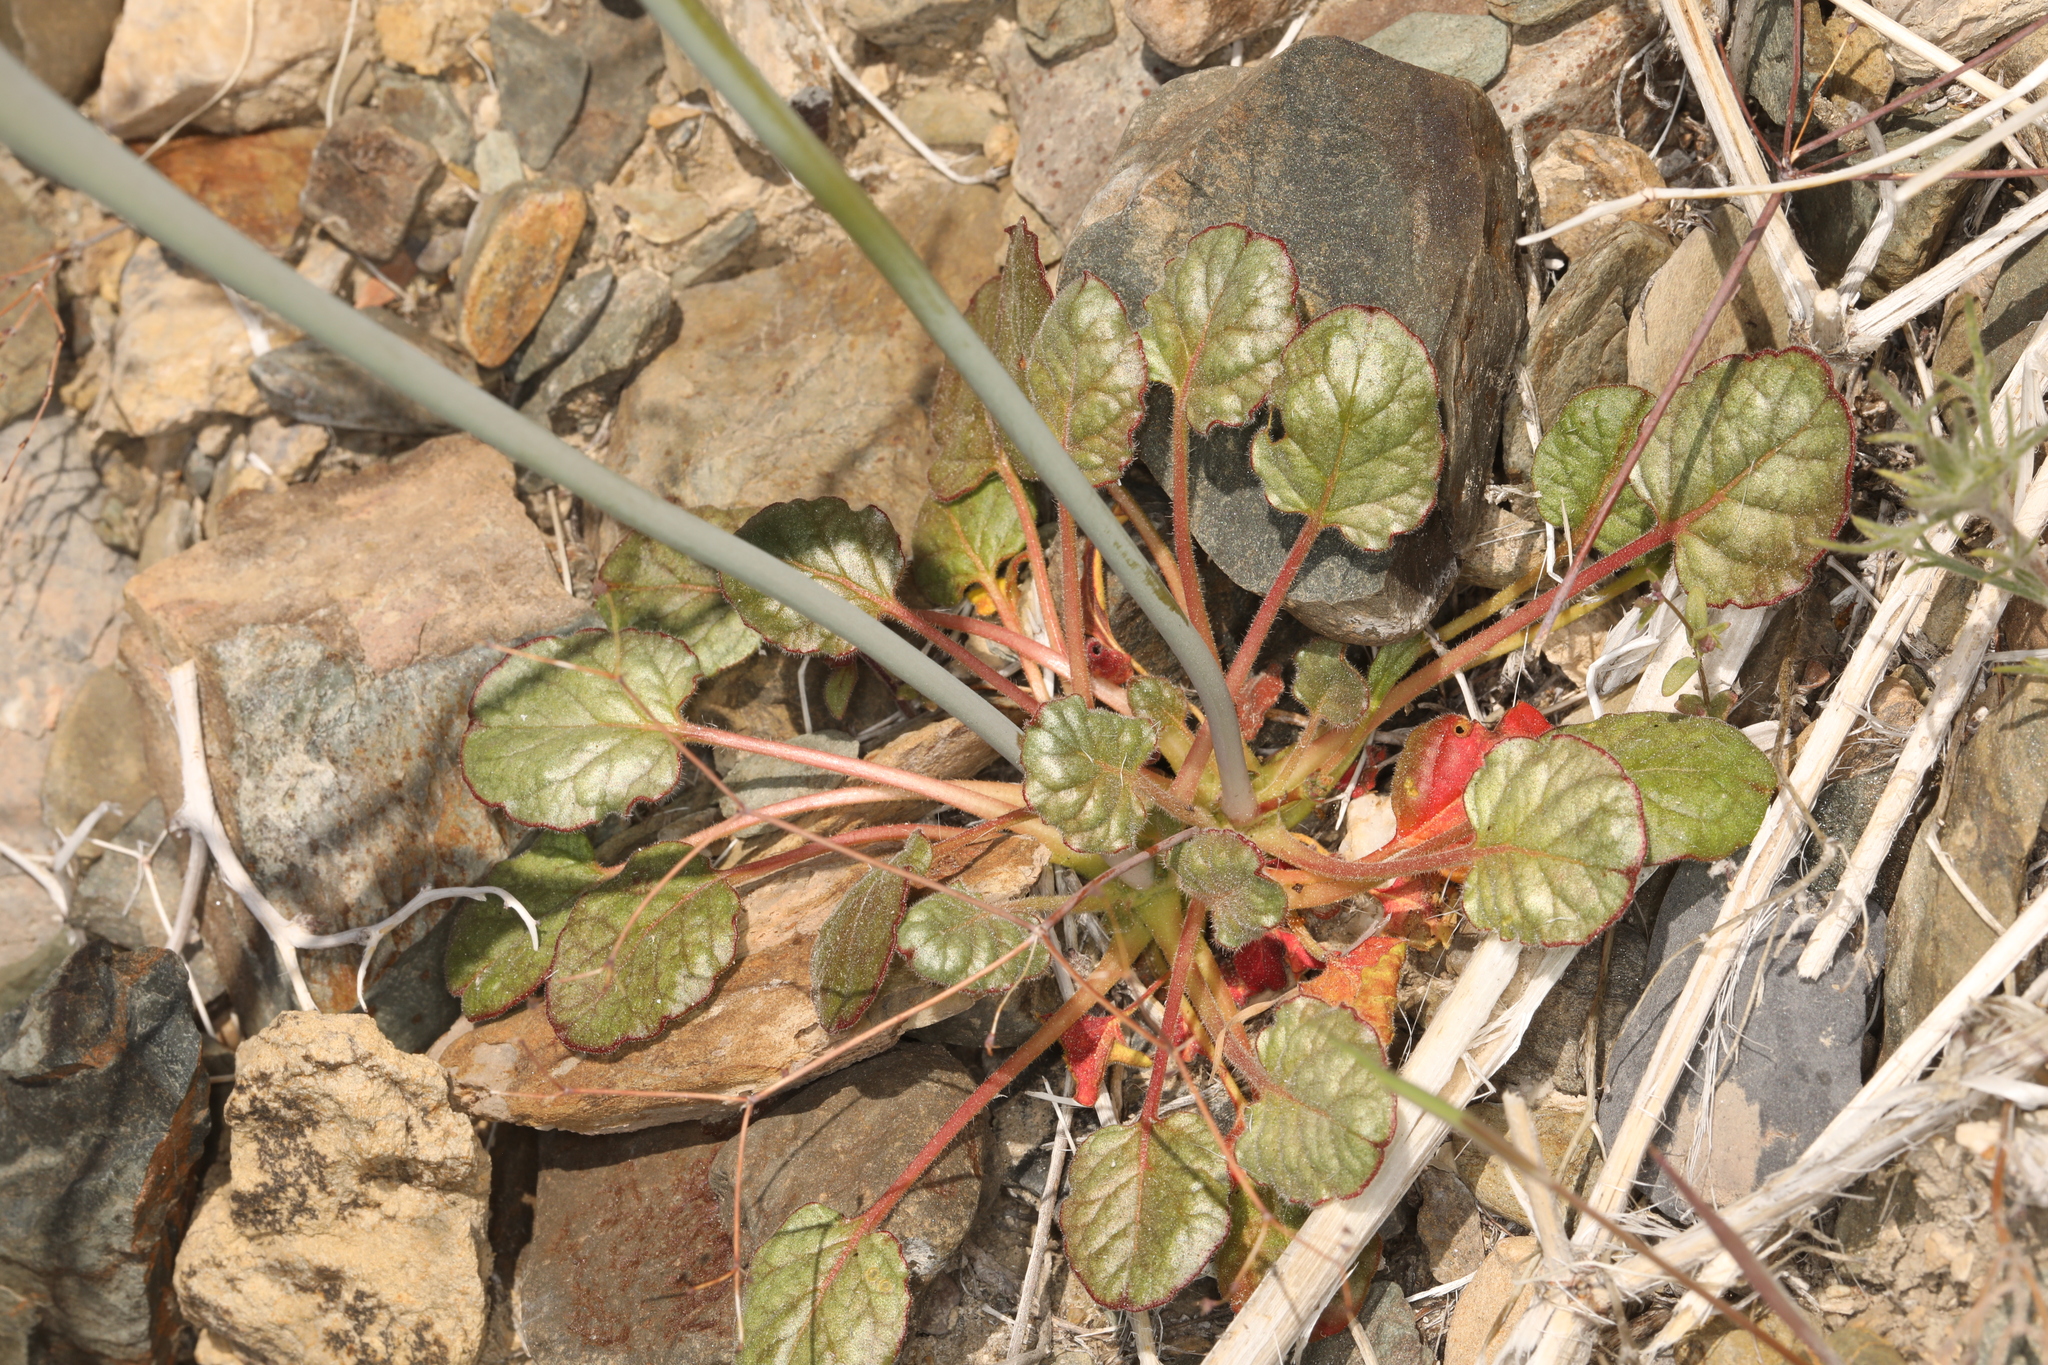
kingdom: Plantae
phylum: Tracheophyta
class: Magnoliopsida
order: Caryophyllales
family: Polygonaceae
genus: Eriogonum
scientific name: Eriogonum inflatum
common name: Desert trumpet
